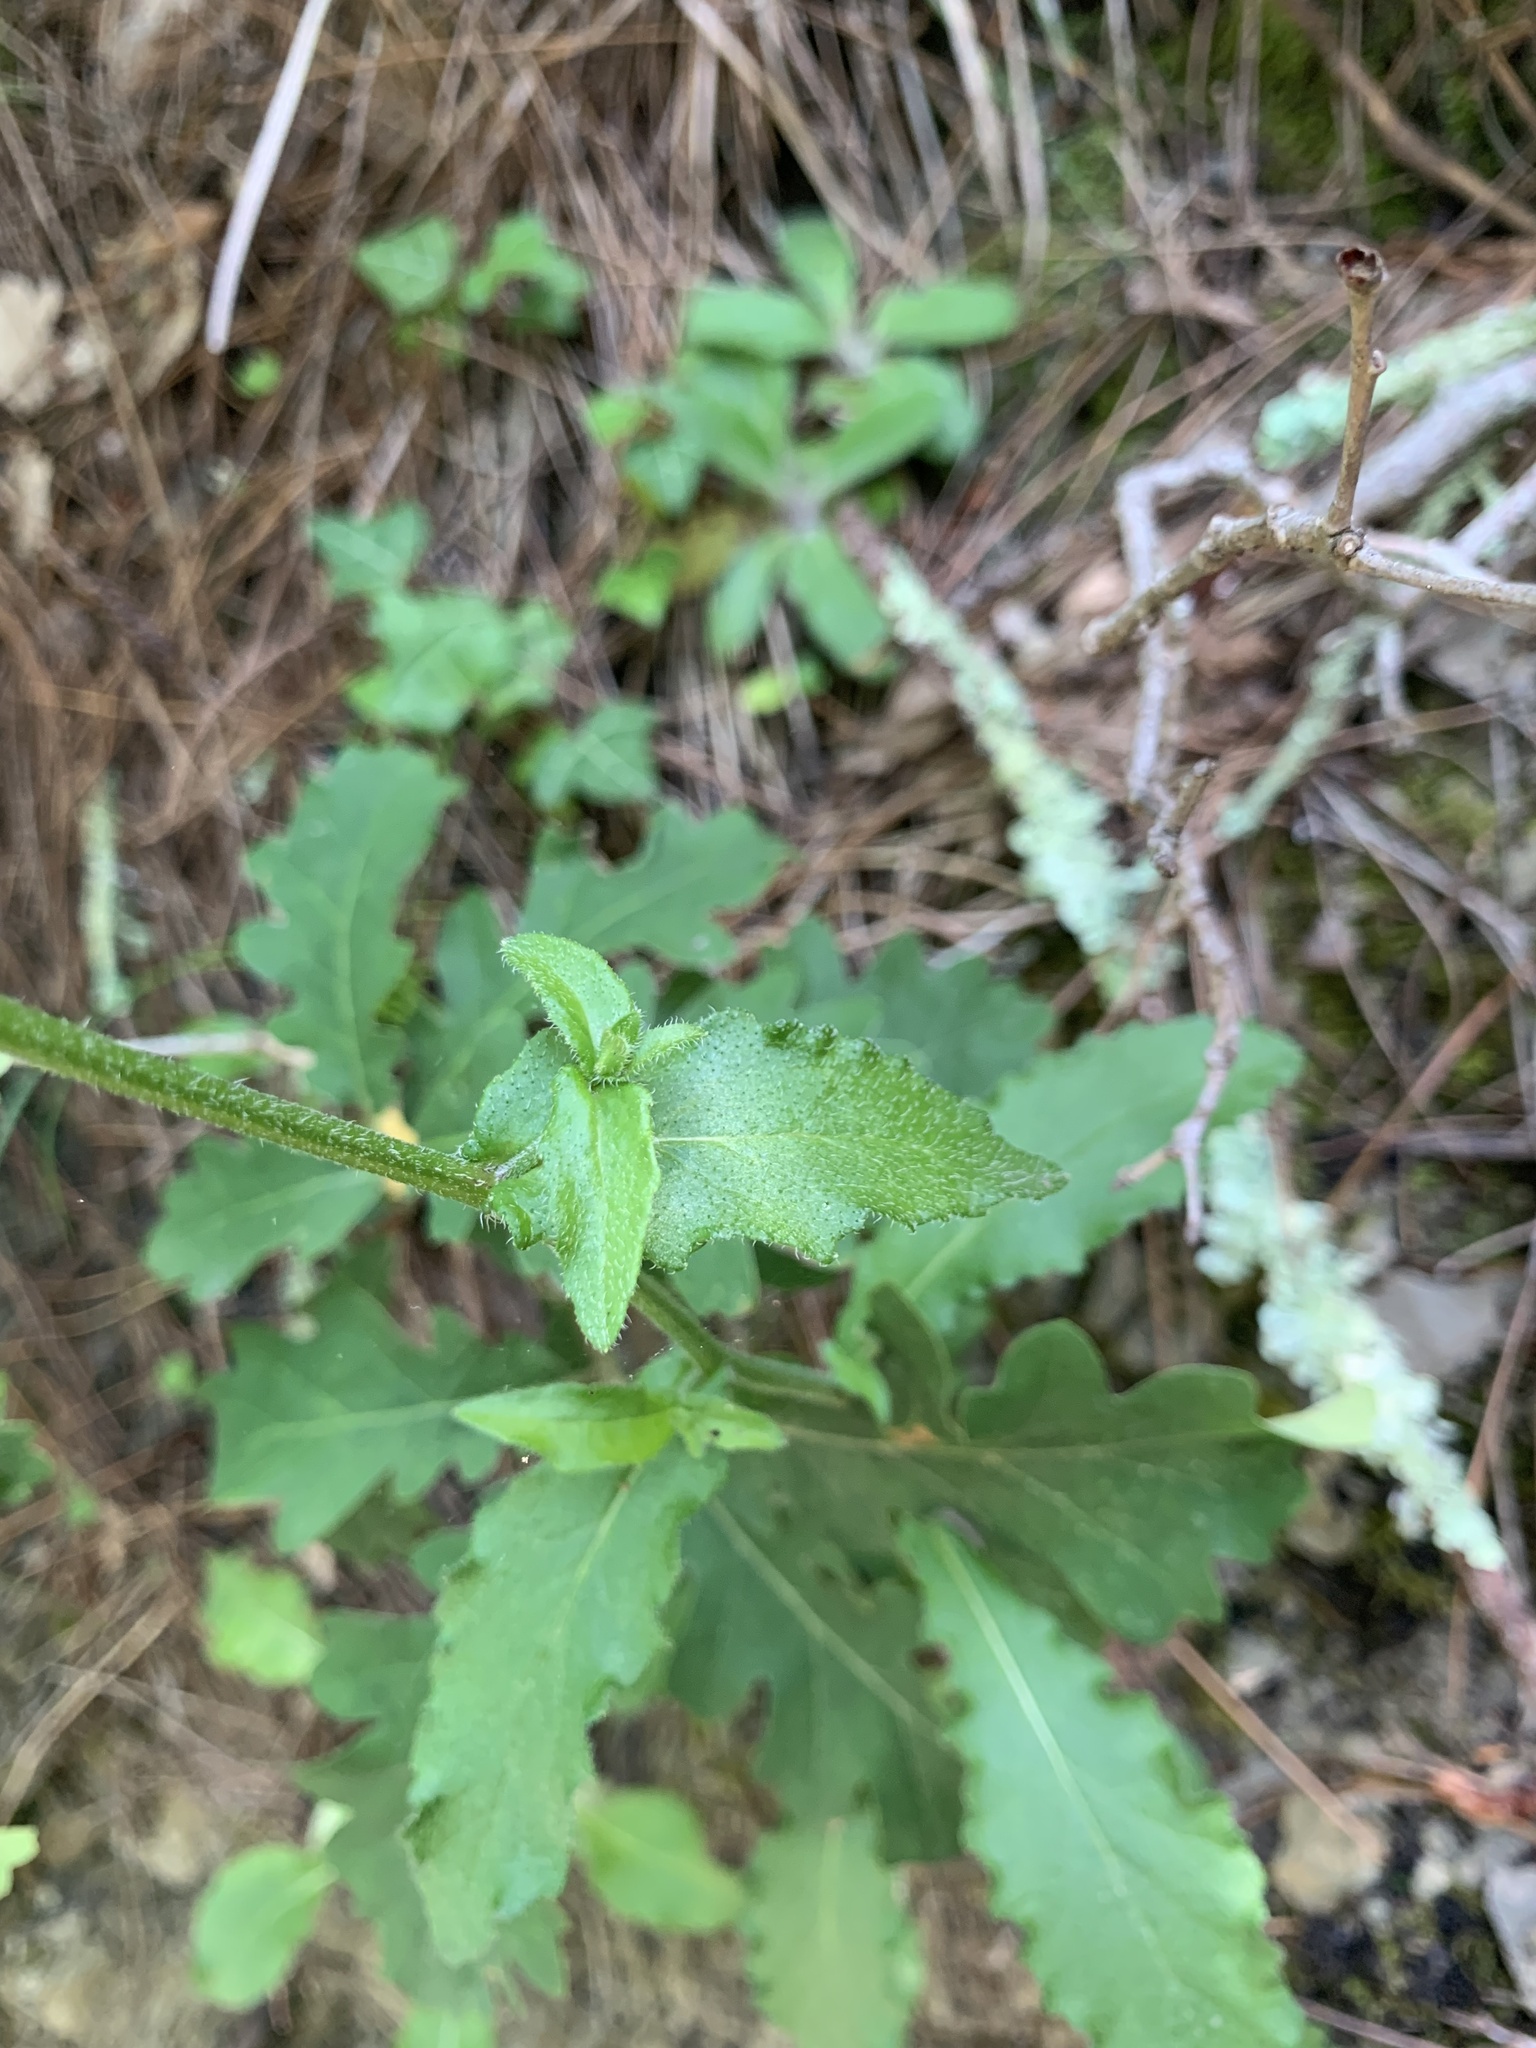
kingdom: Plantae
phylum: Tracheophyta
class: Magnoliopsida
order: Asterales
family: Campanulaceae
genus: Campanula
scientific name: Campanula komarovii
